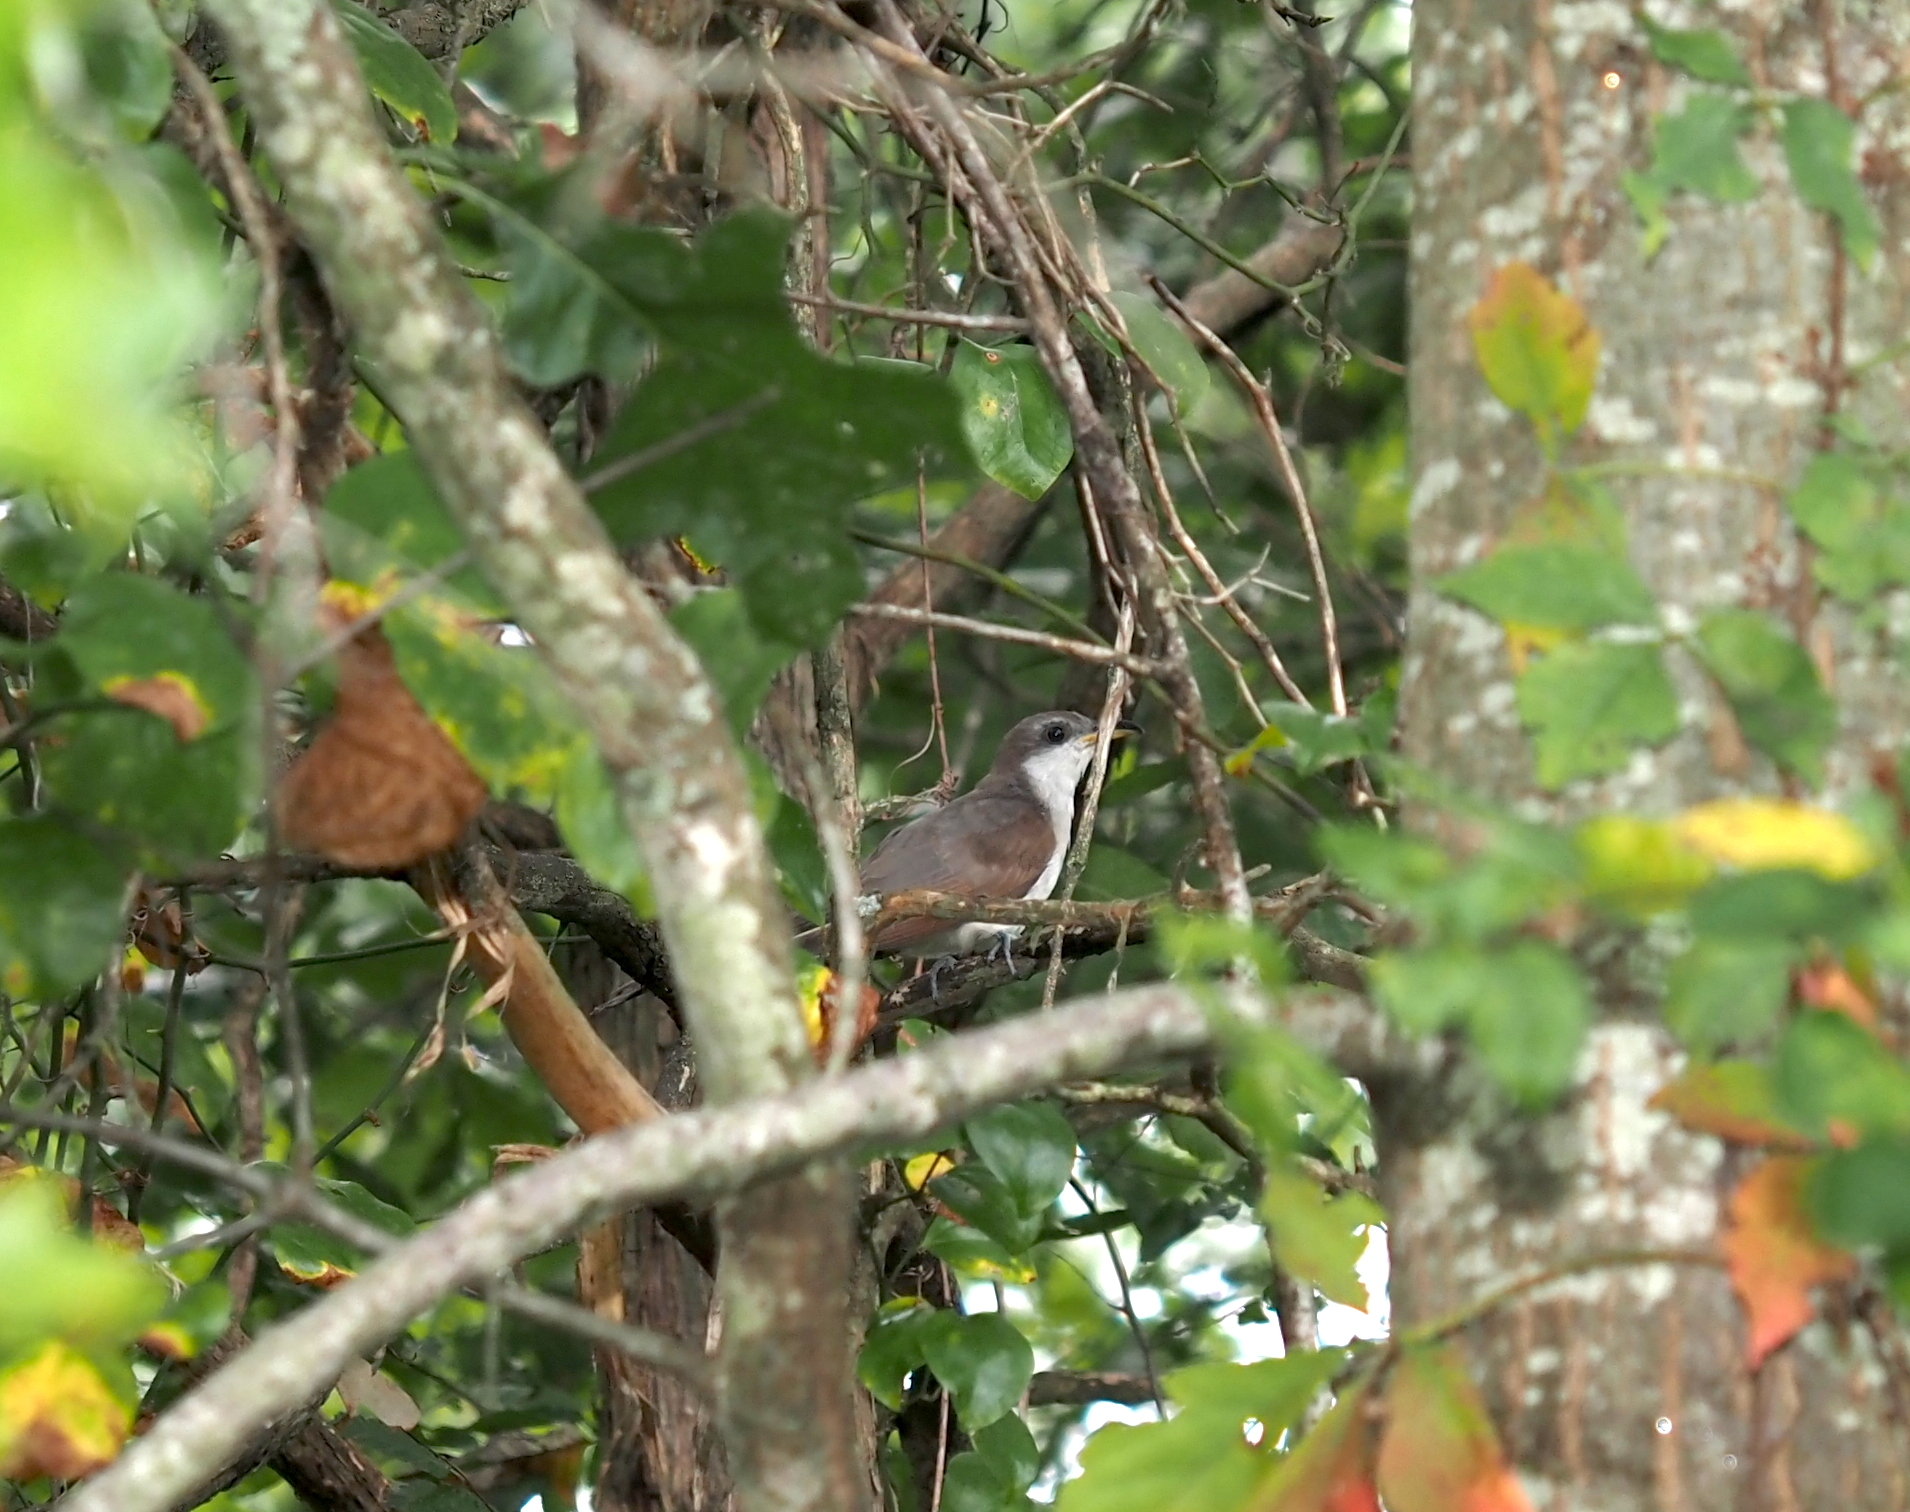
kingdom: Animalia
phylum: Chordata
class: Aves
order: Cuculiformes
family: Cuculidae
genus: Coccyzus
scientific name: Coccyzus americanus
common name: Yellow-billed cuckoo
